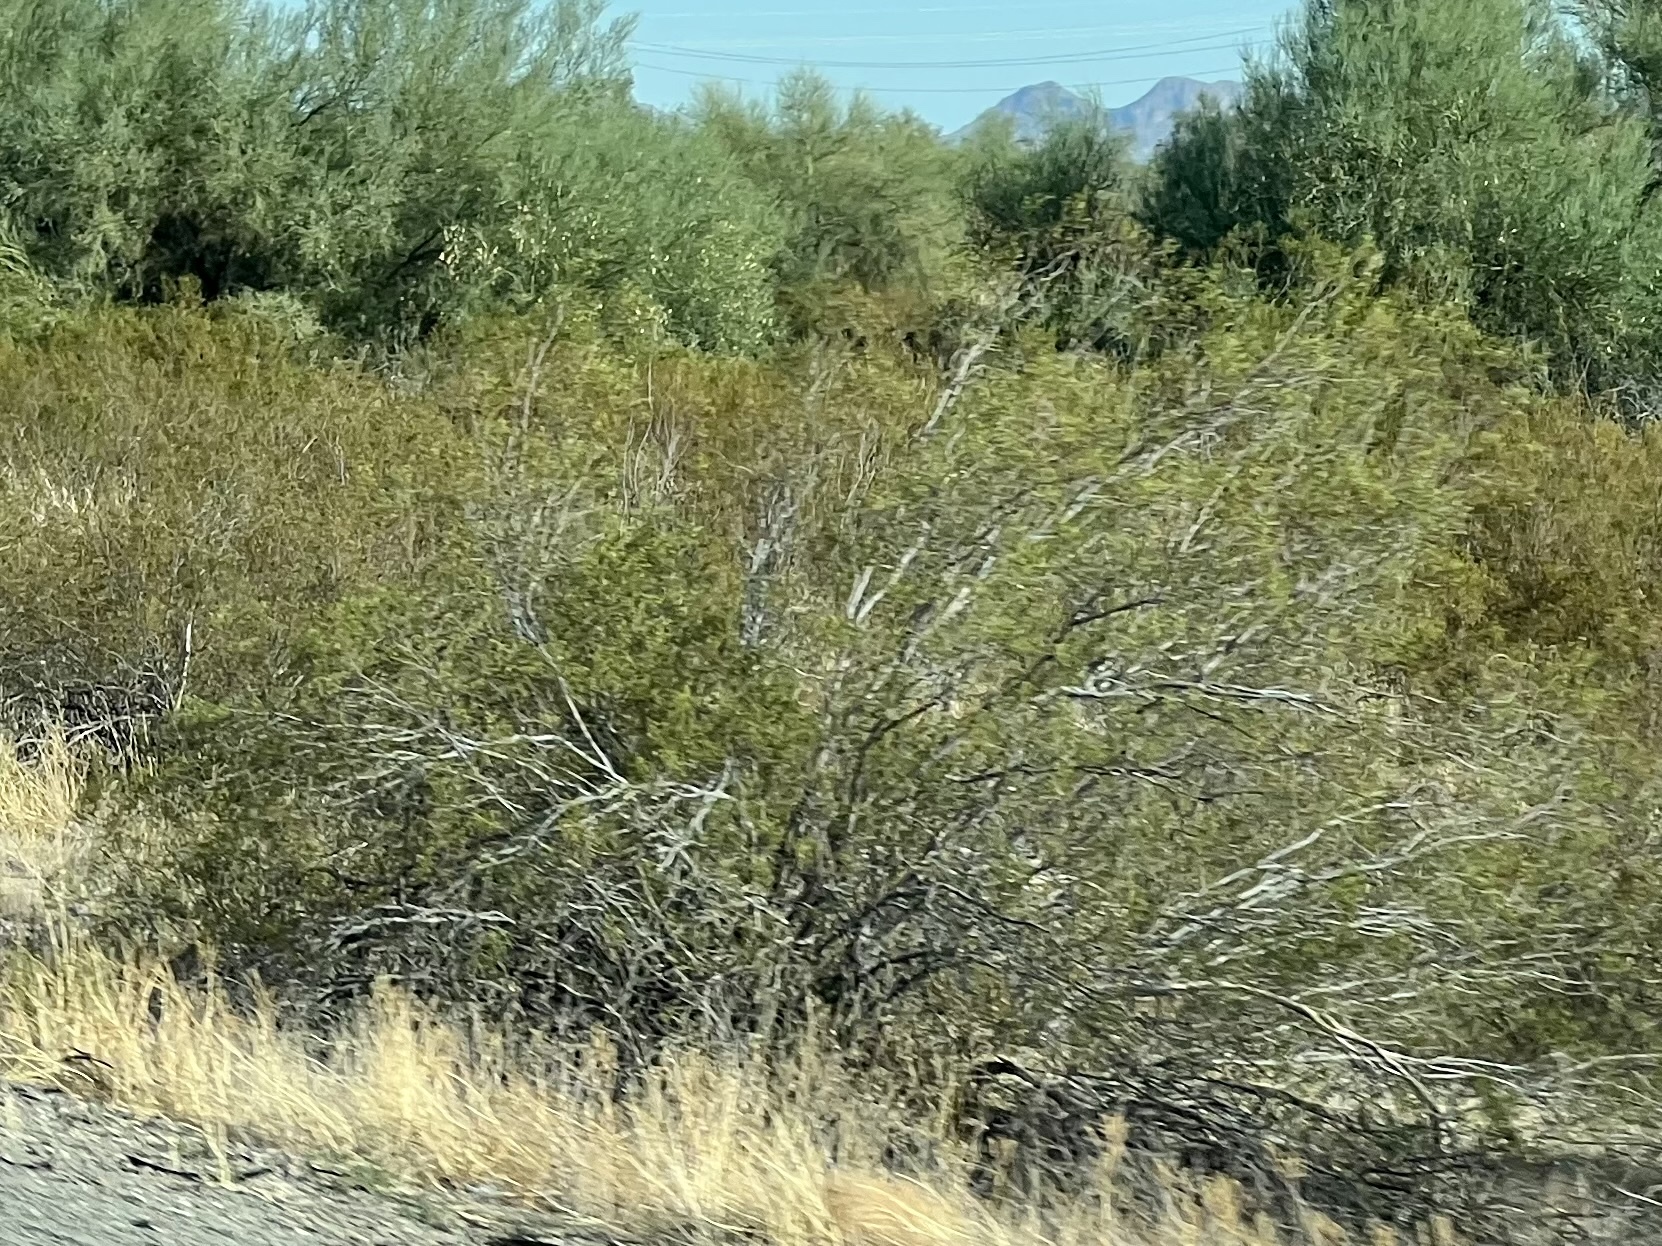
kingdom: Plantae
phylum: Tracheophyta
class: Magnoliopsida
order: Zygophyllales
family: Zygophyllaceae
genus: Larrea
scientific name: Larrea tridentata
